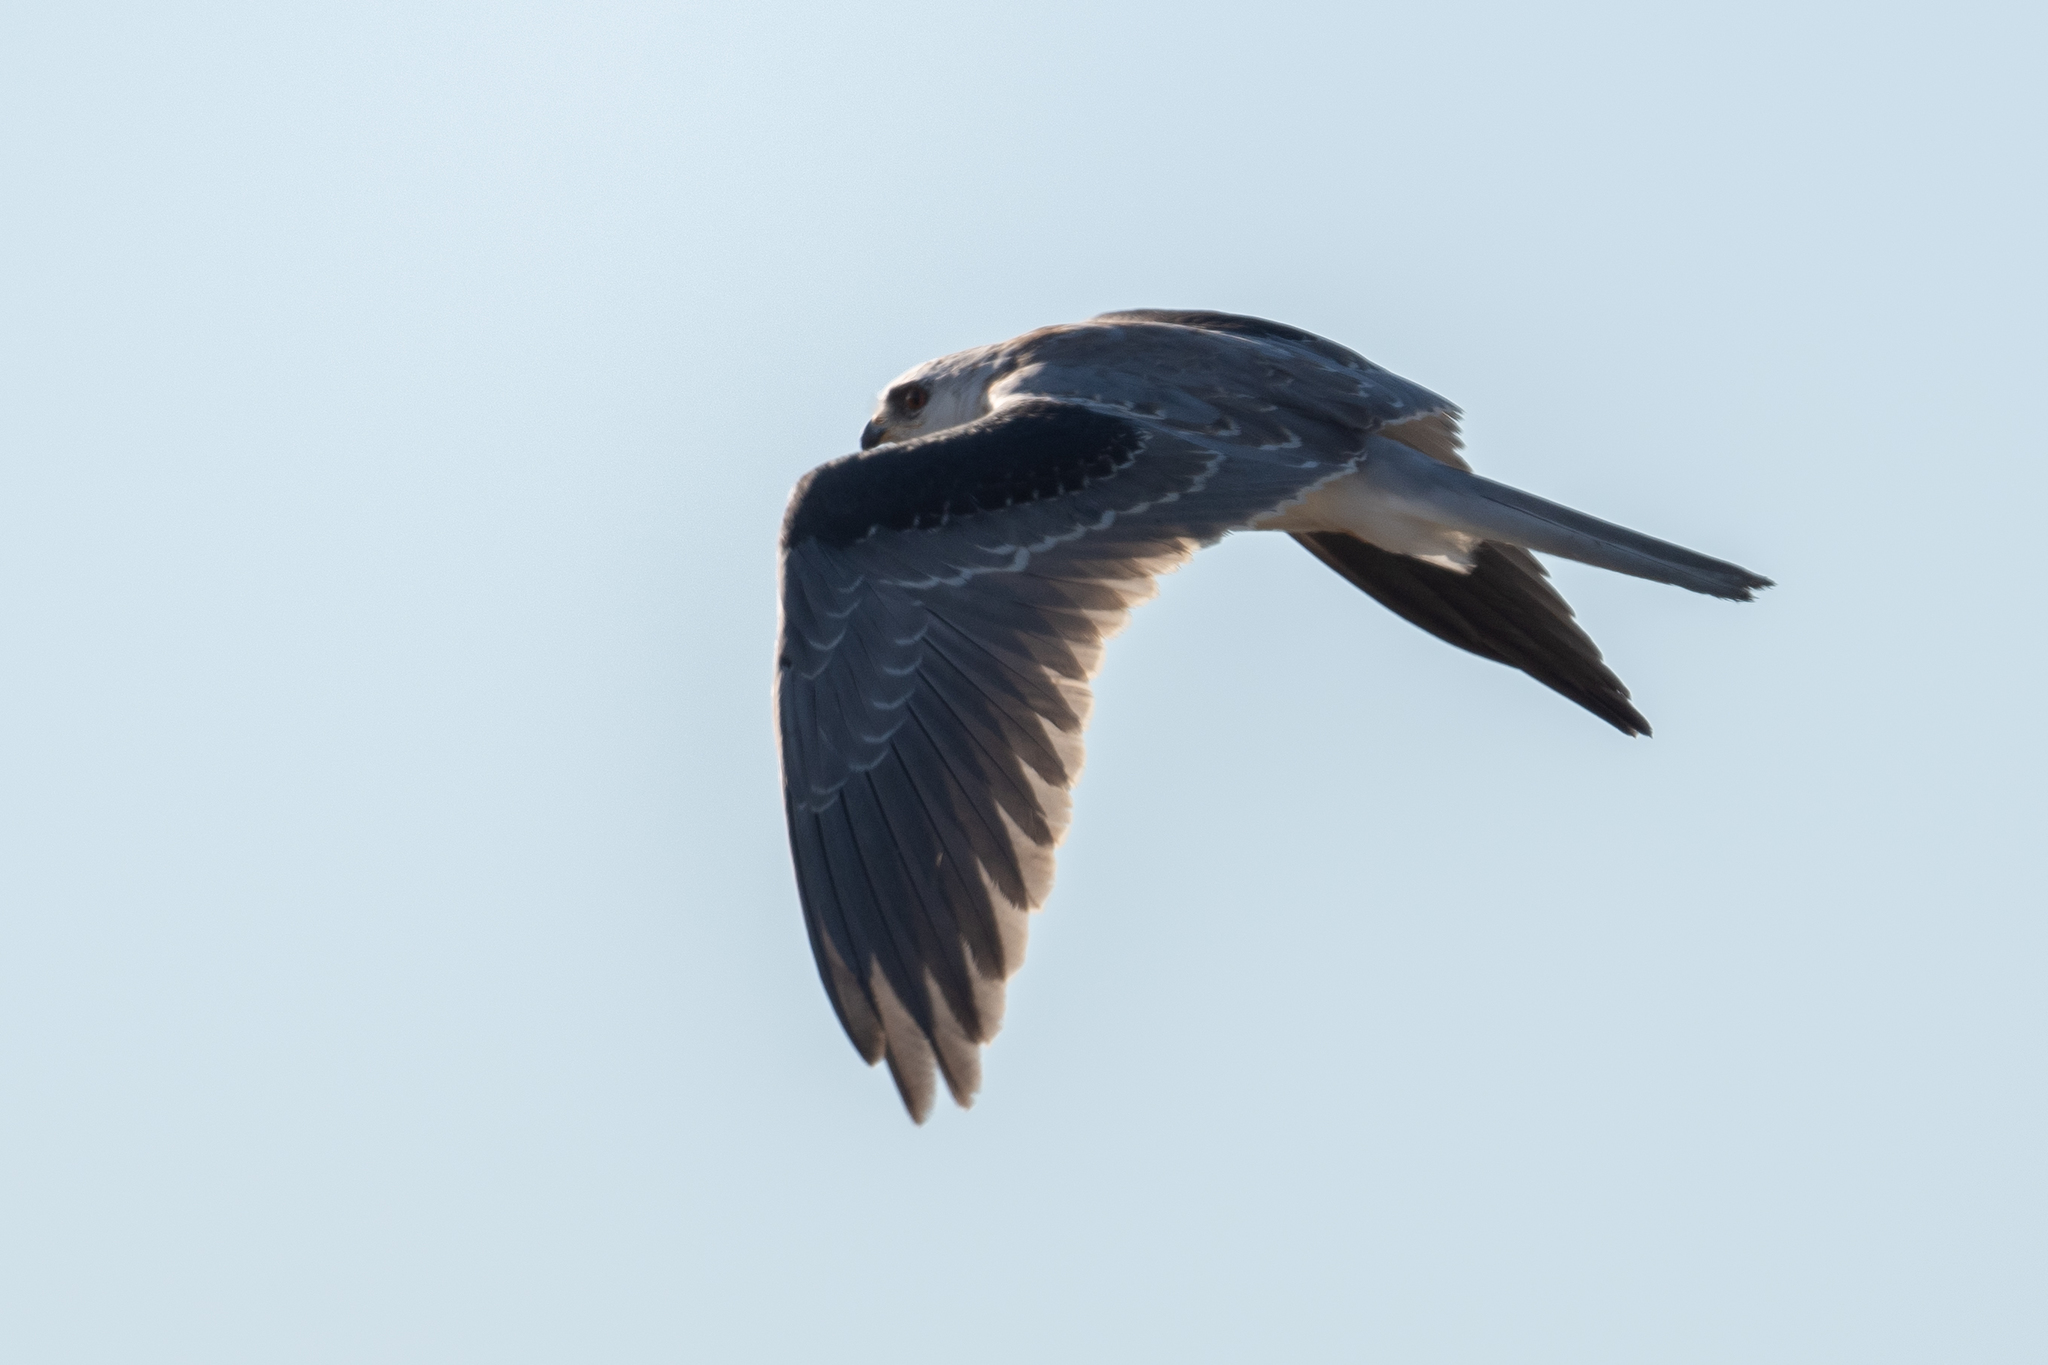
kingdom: Animalia
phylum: Chordata
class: Aves
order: Accipitriformes
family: Accipitridae
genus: Elanus
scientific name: Elanus leucurus
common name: White-tailed kite
